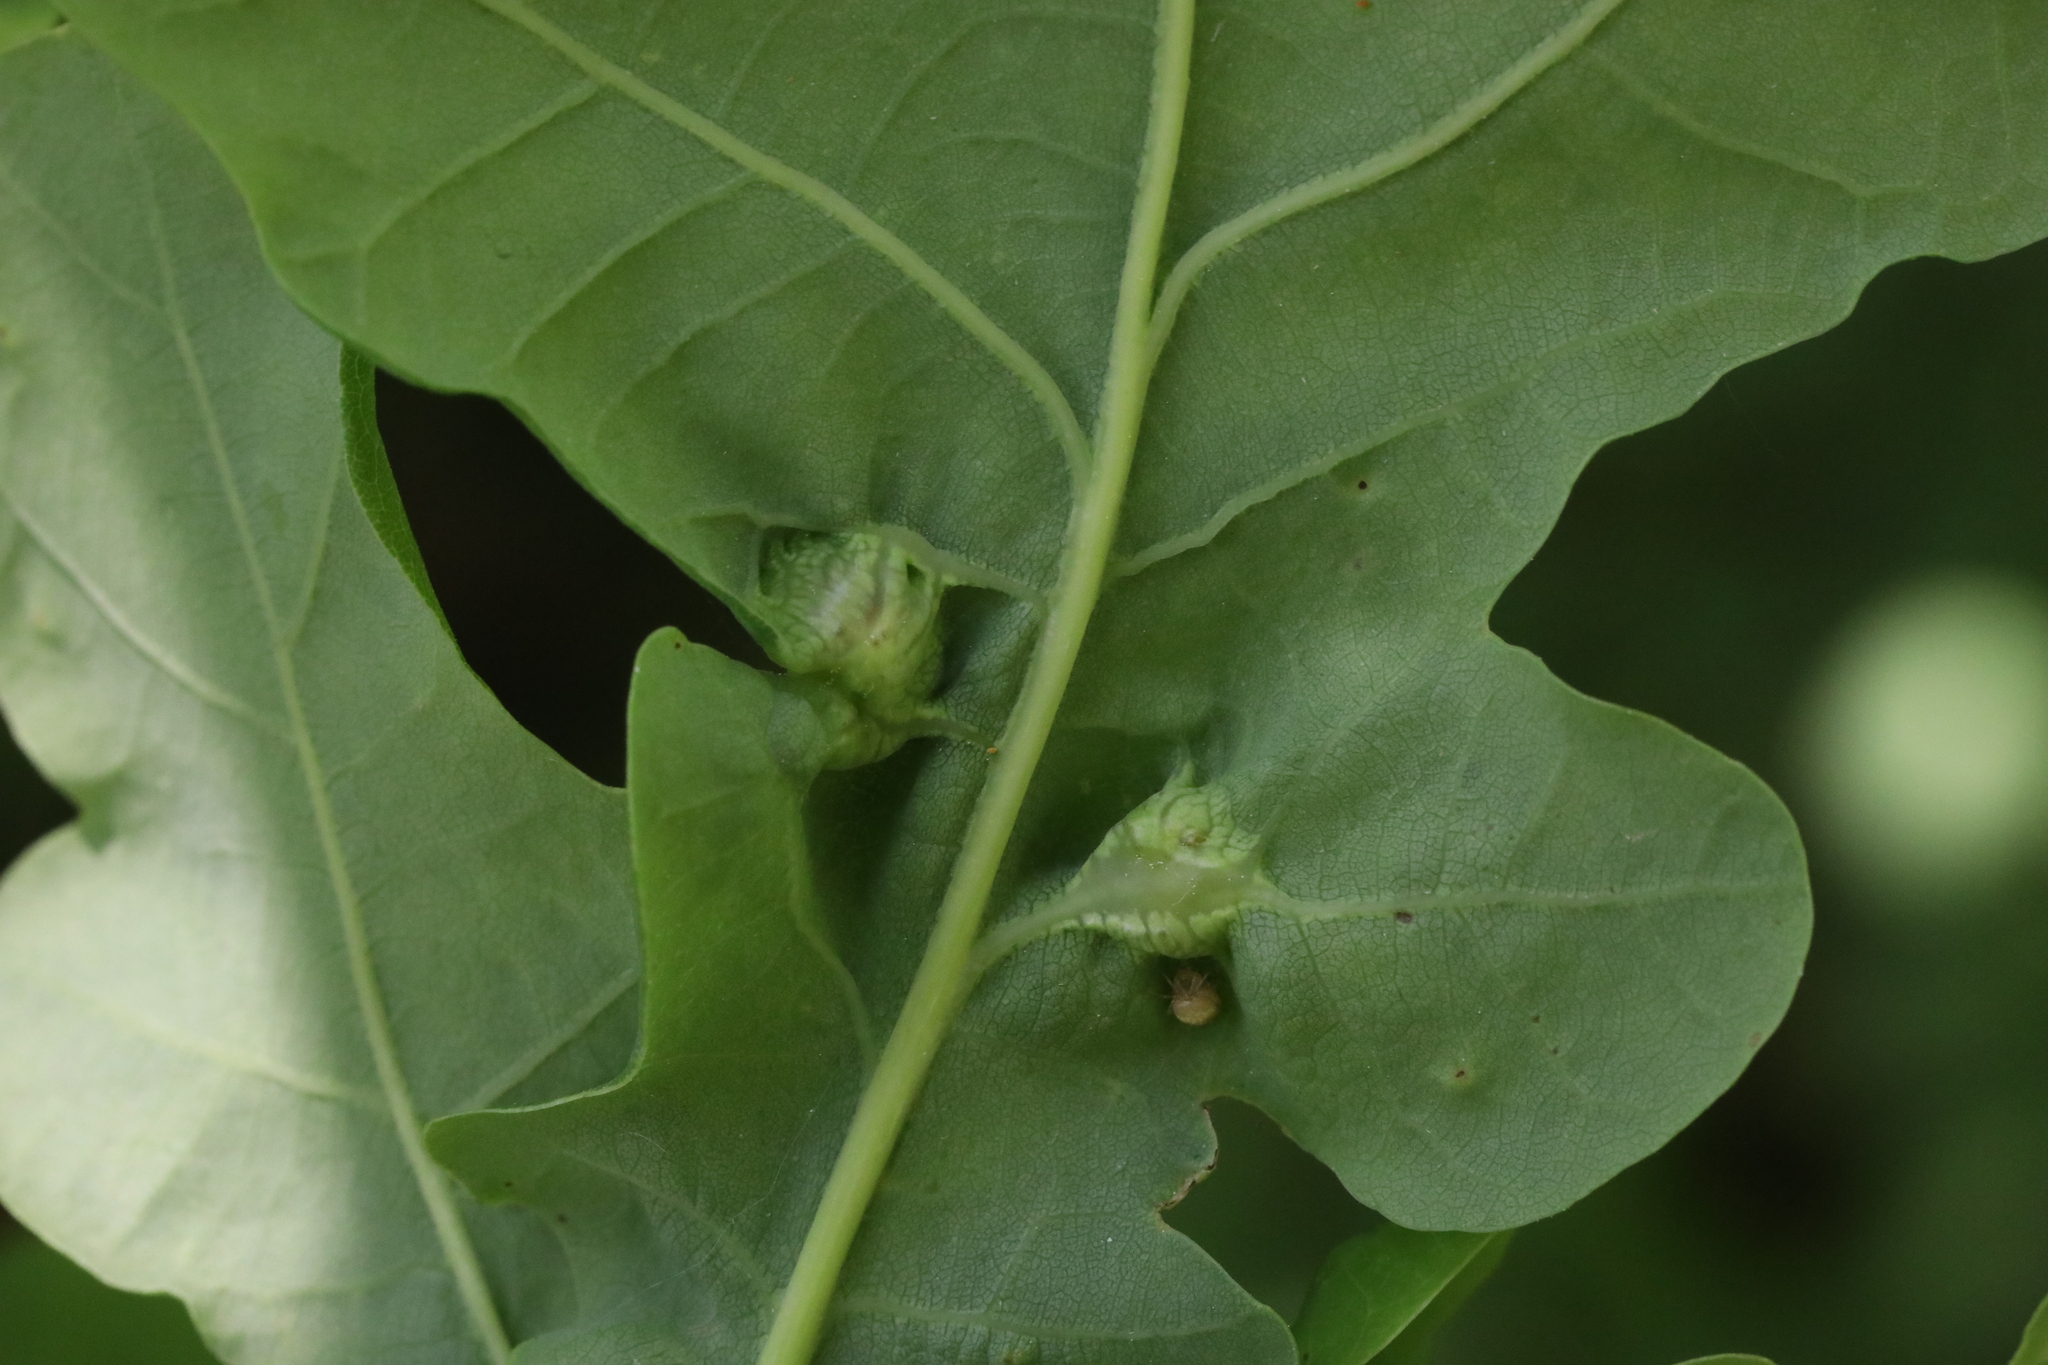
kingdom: Animalia
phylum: Arthropoda
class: Insecta
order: Hymenoptera
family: Cynipidae
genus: Andricus
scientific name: Andricus curvator
